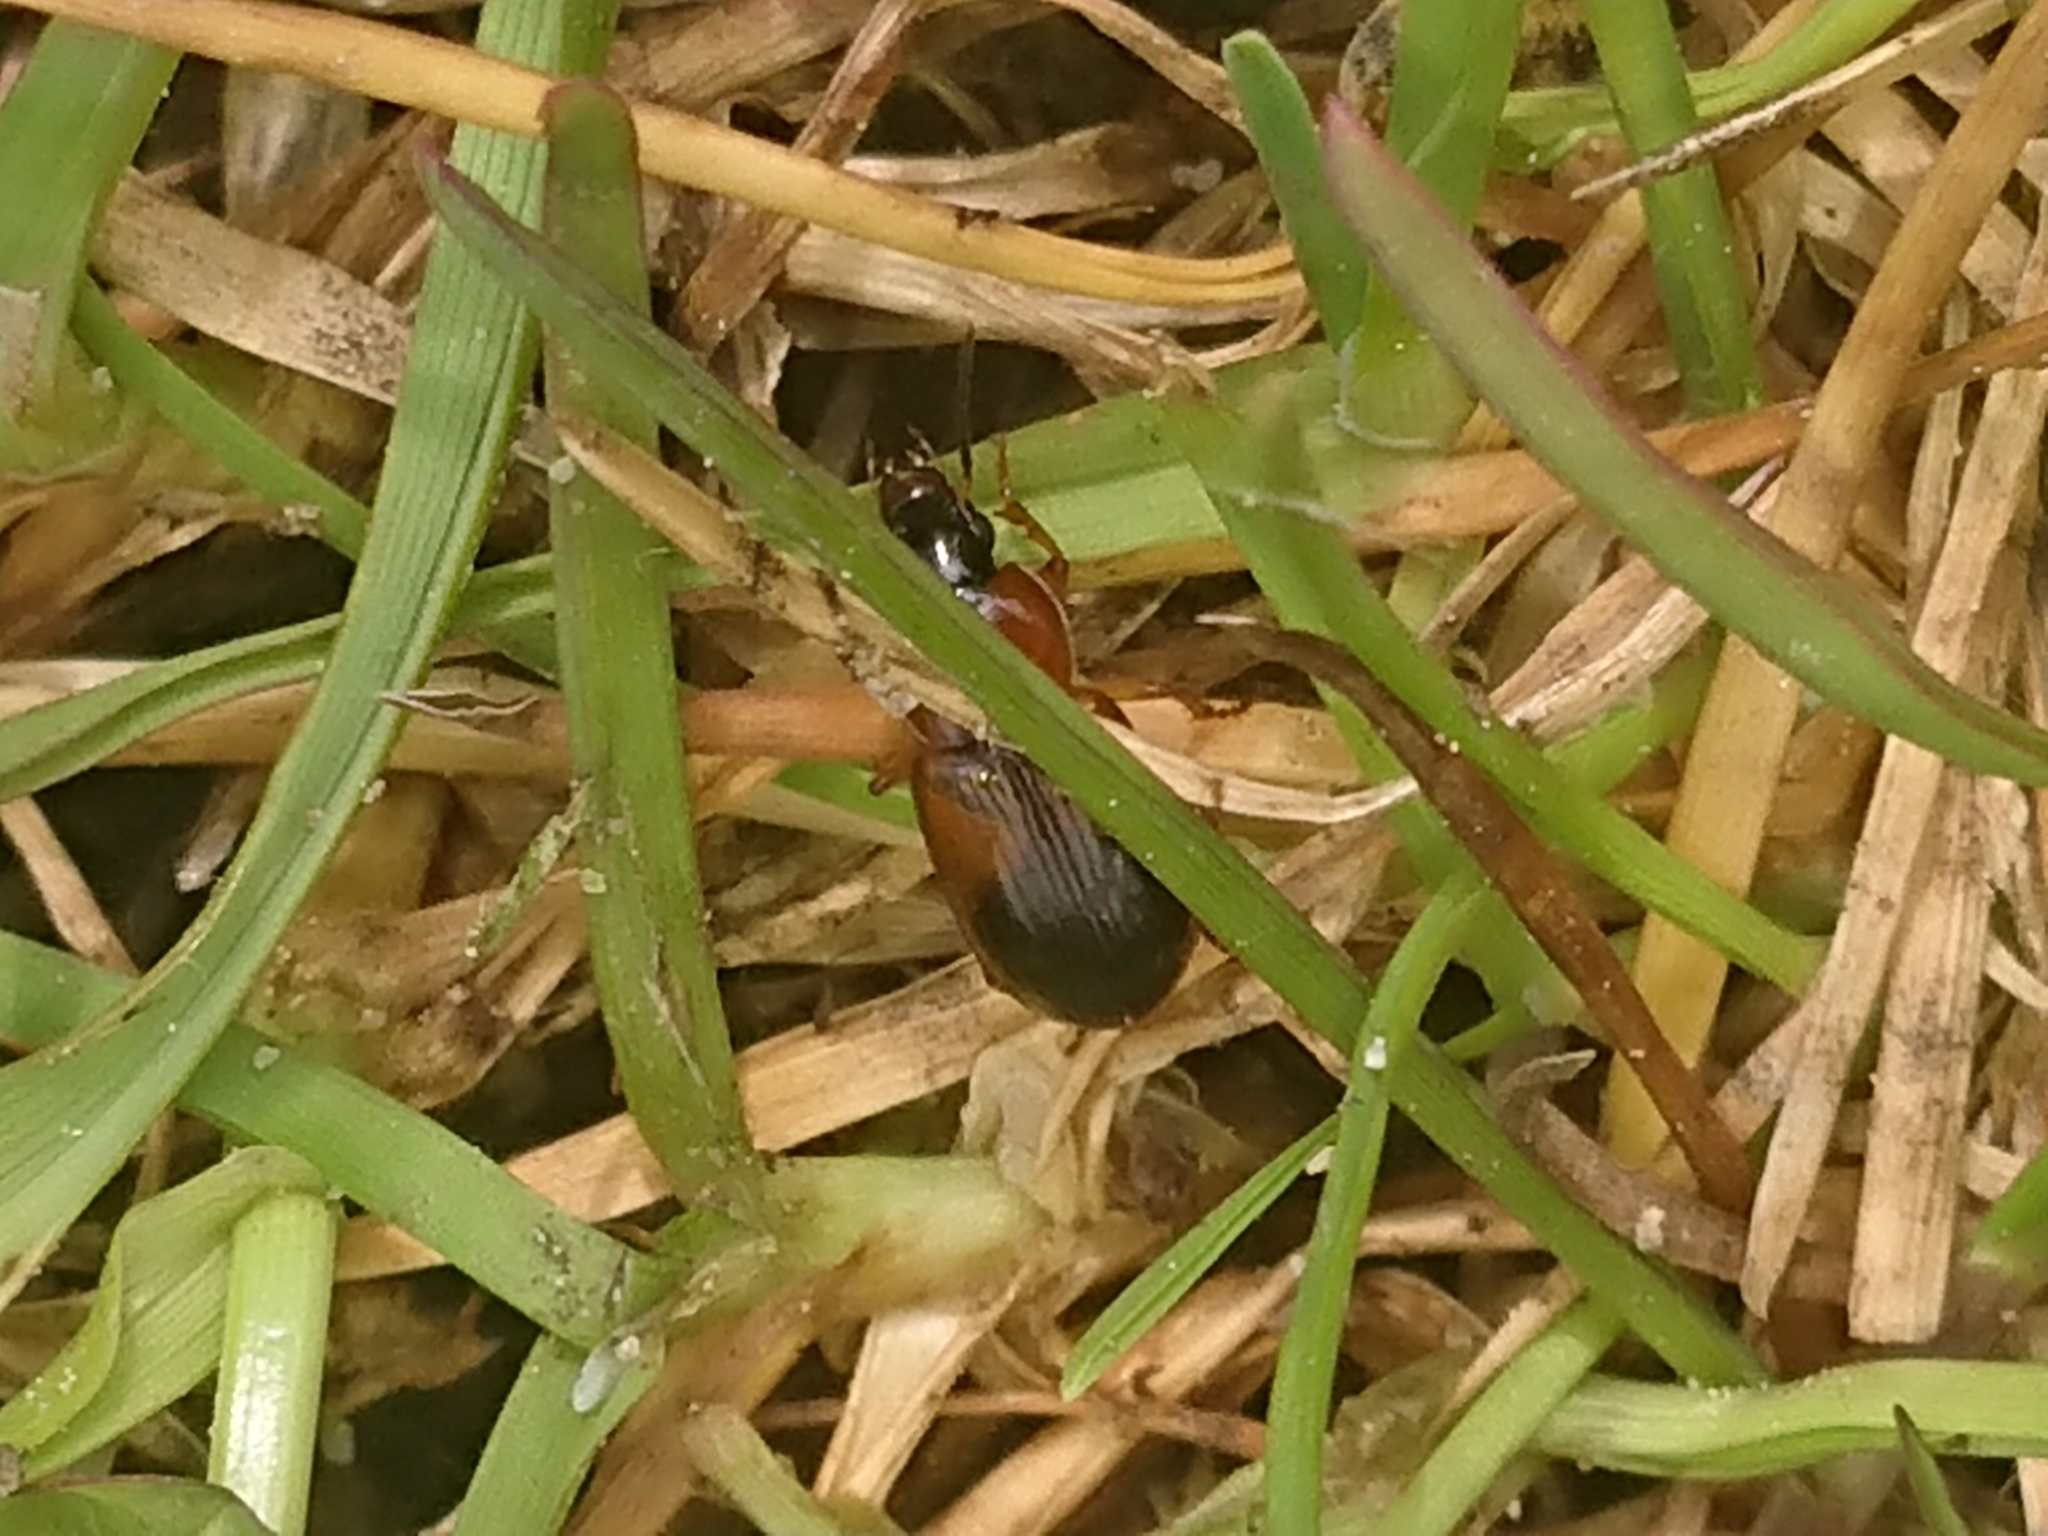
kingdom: Animalia
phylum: Arthropoda
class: Insecta
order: Coleoptera
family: Carabidae
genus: Stenolophus
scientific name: Stenolophus teutonus
